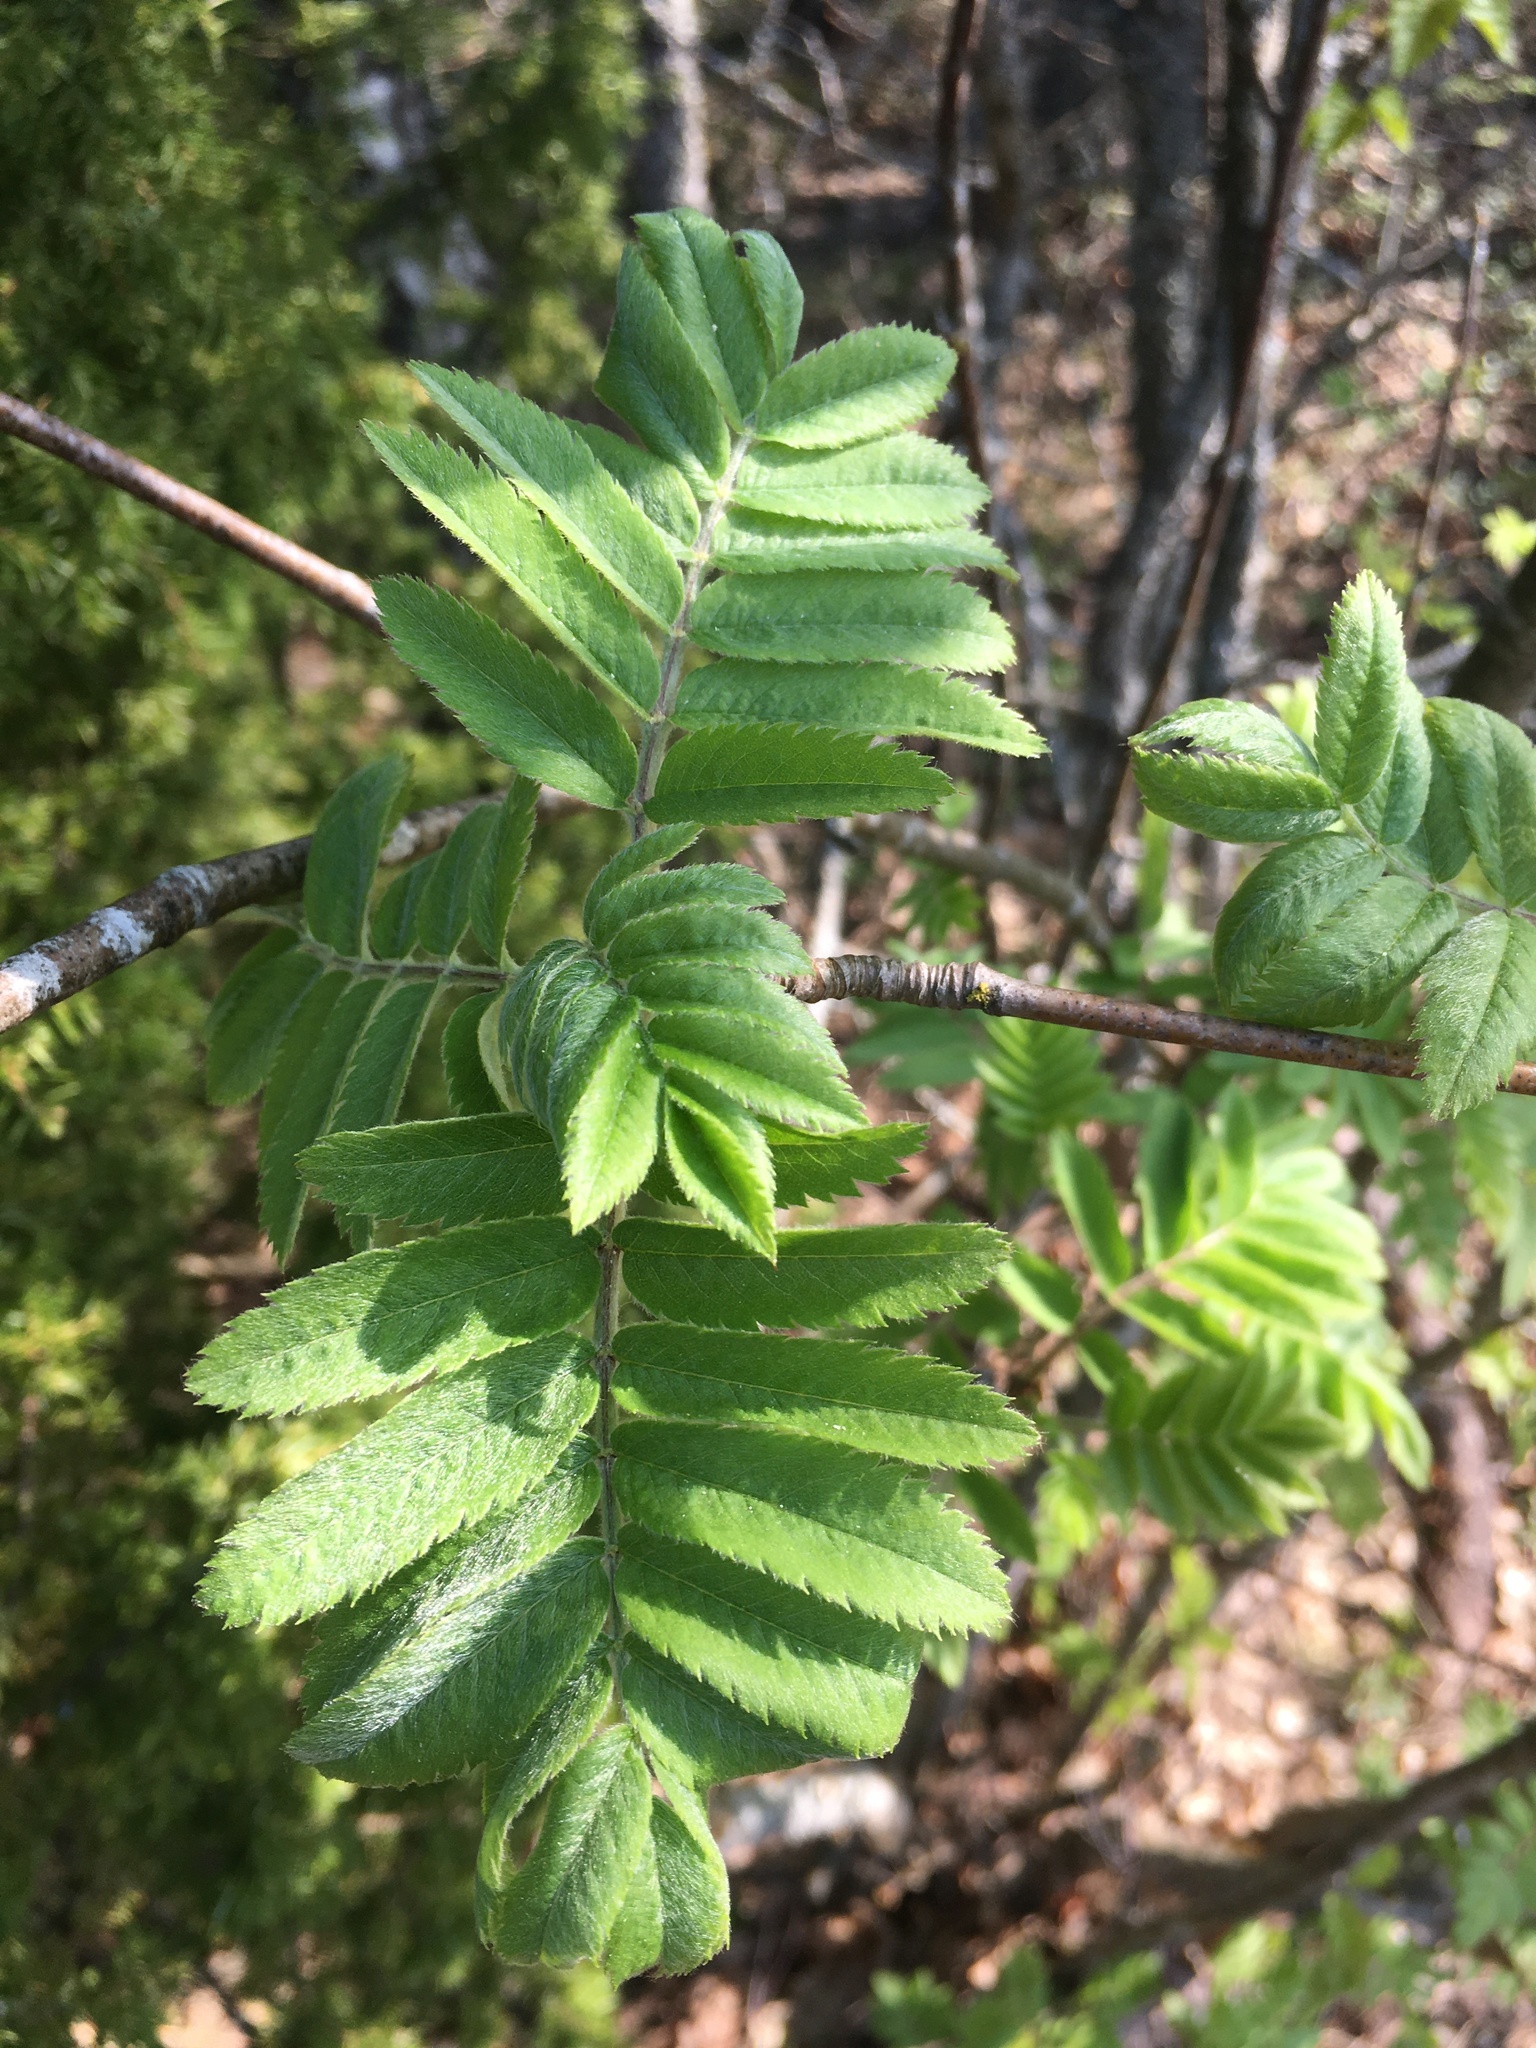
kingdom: Plantae
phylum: Tracheophyta
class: Magnoliopsida
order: Rosales
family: Rosaceae
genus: Sorbus
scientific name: Sorbus aucuparia
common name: Rowan
